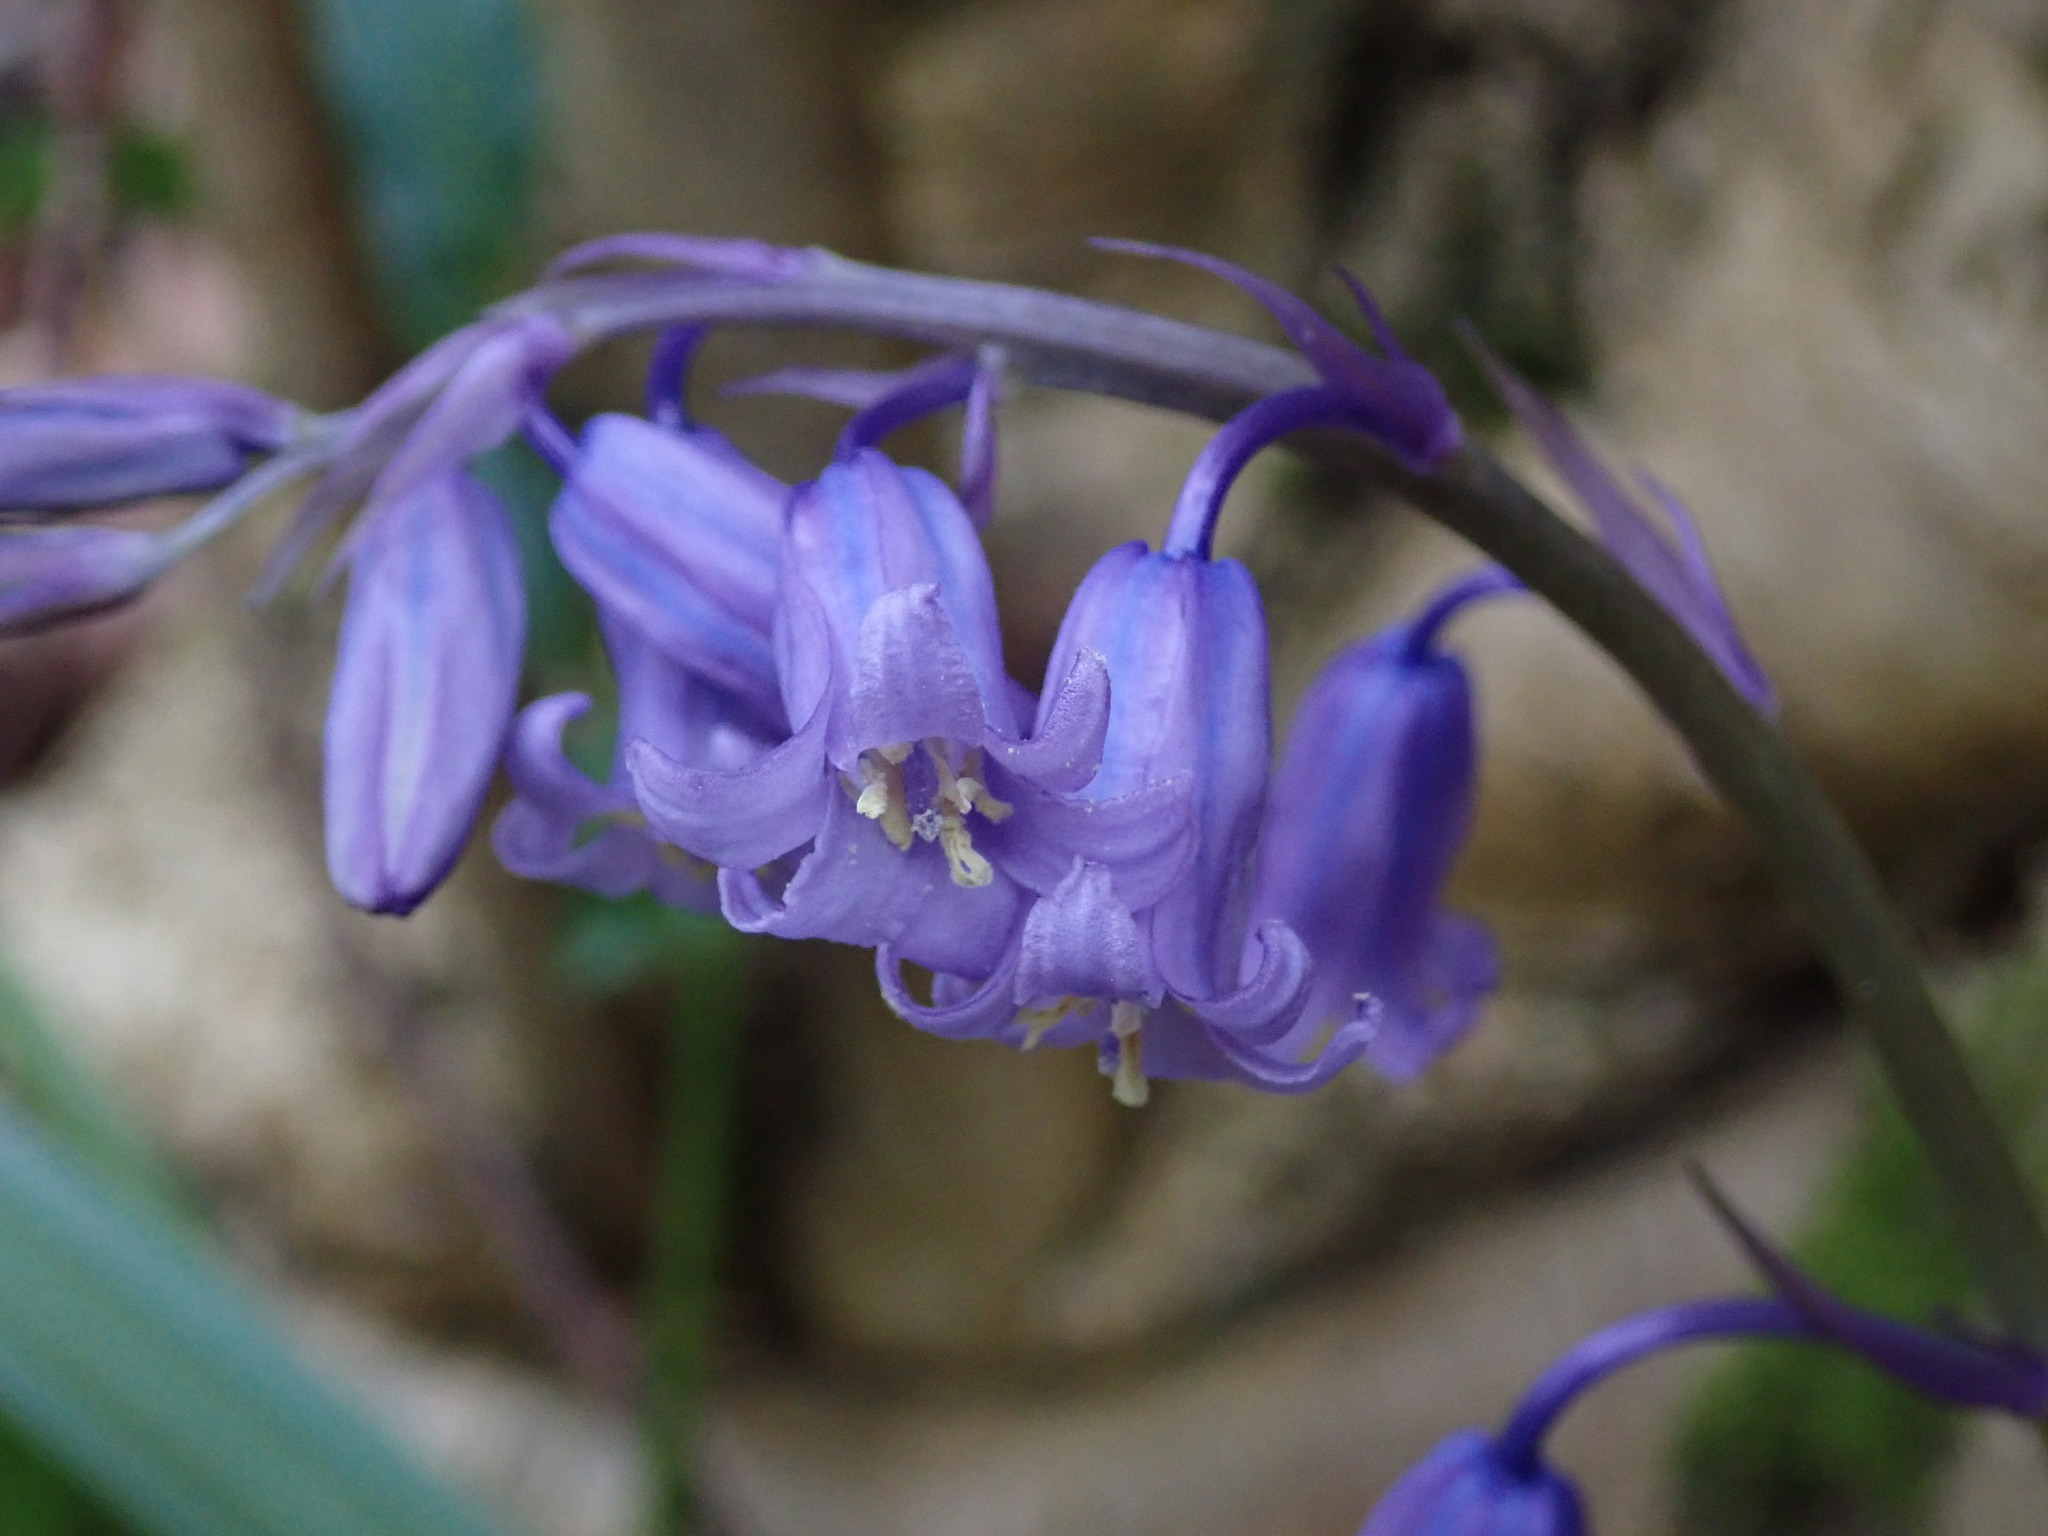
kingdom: Plantae
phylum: Tracheophyta
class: Liliopsida
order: Asparagales
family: Asparagaceae
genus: Hyacinthoides
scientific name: Hyacinthoides non-scripta
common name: Bluebell
